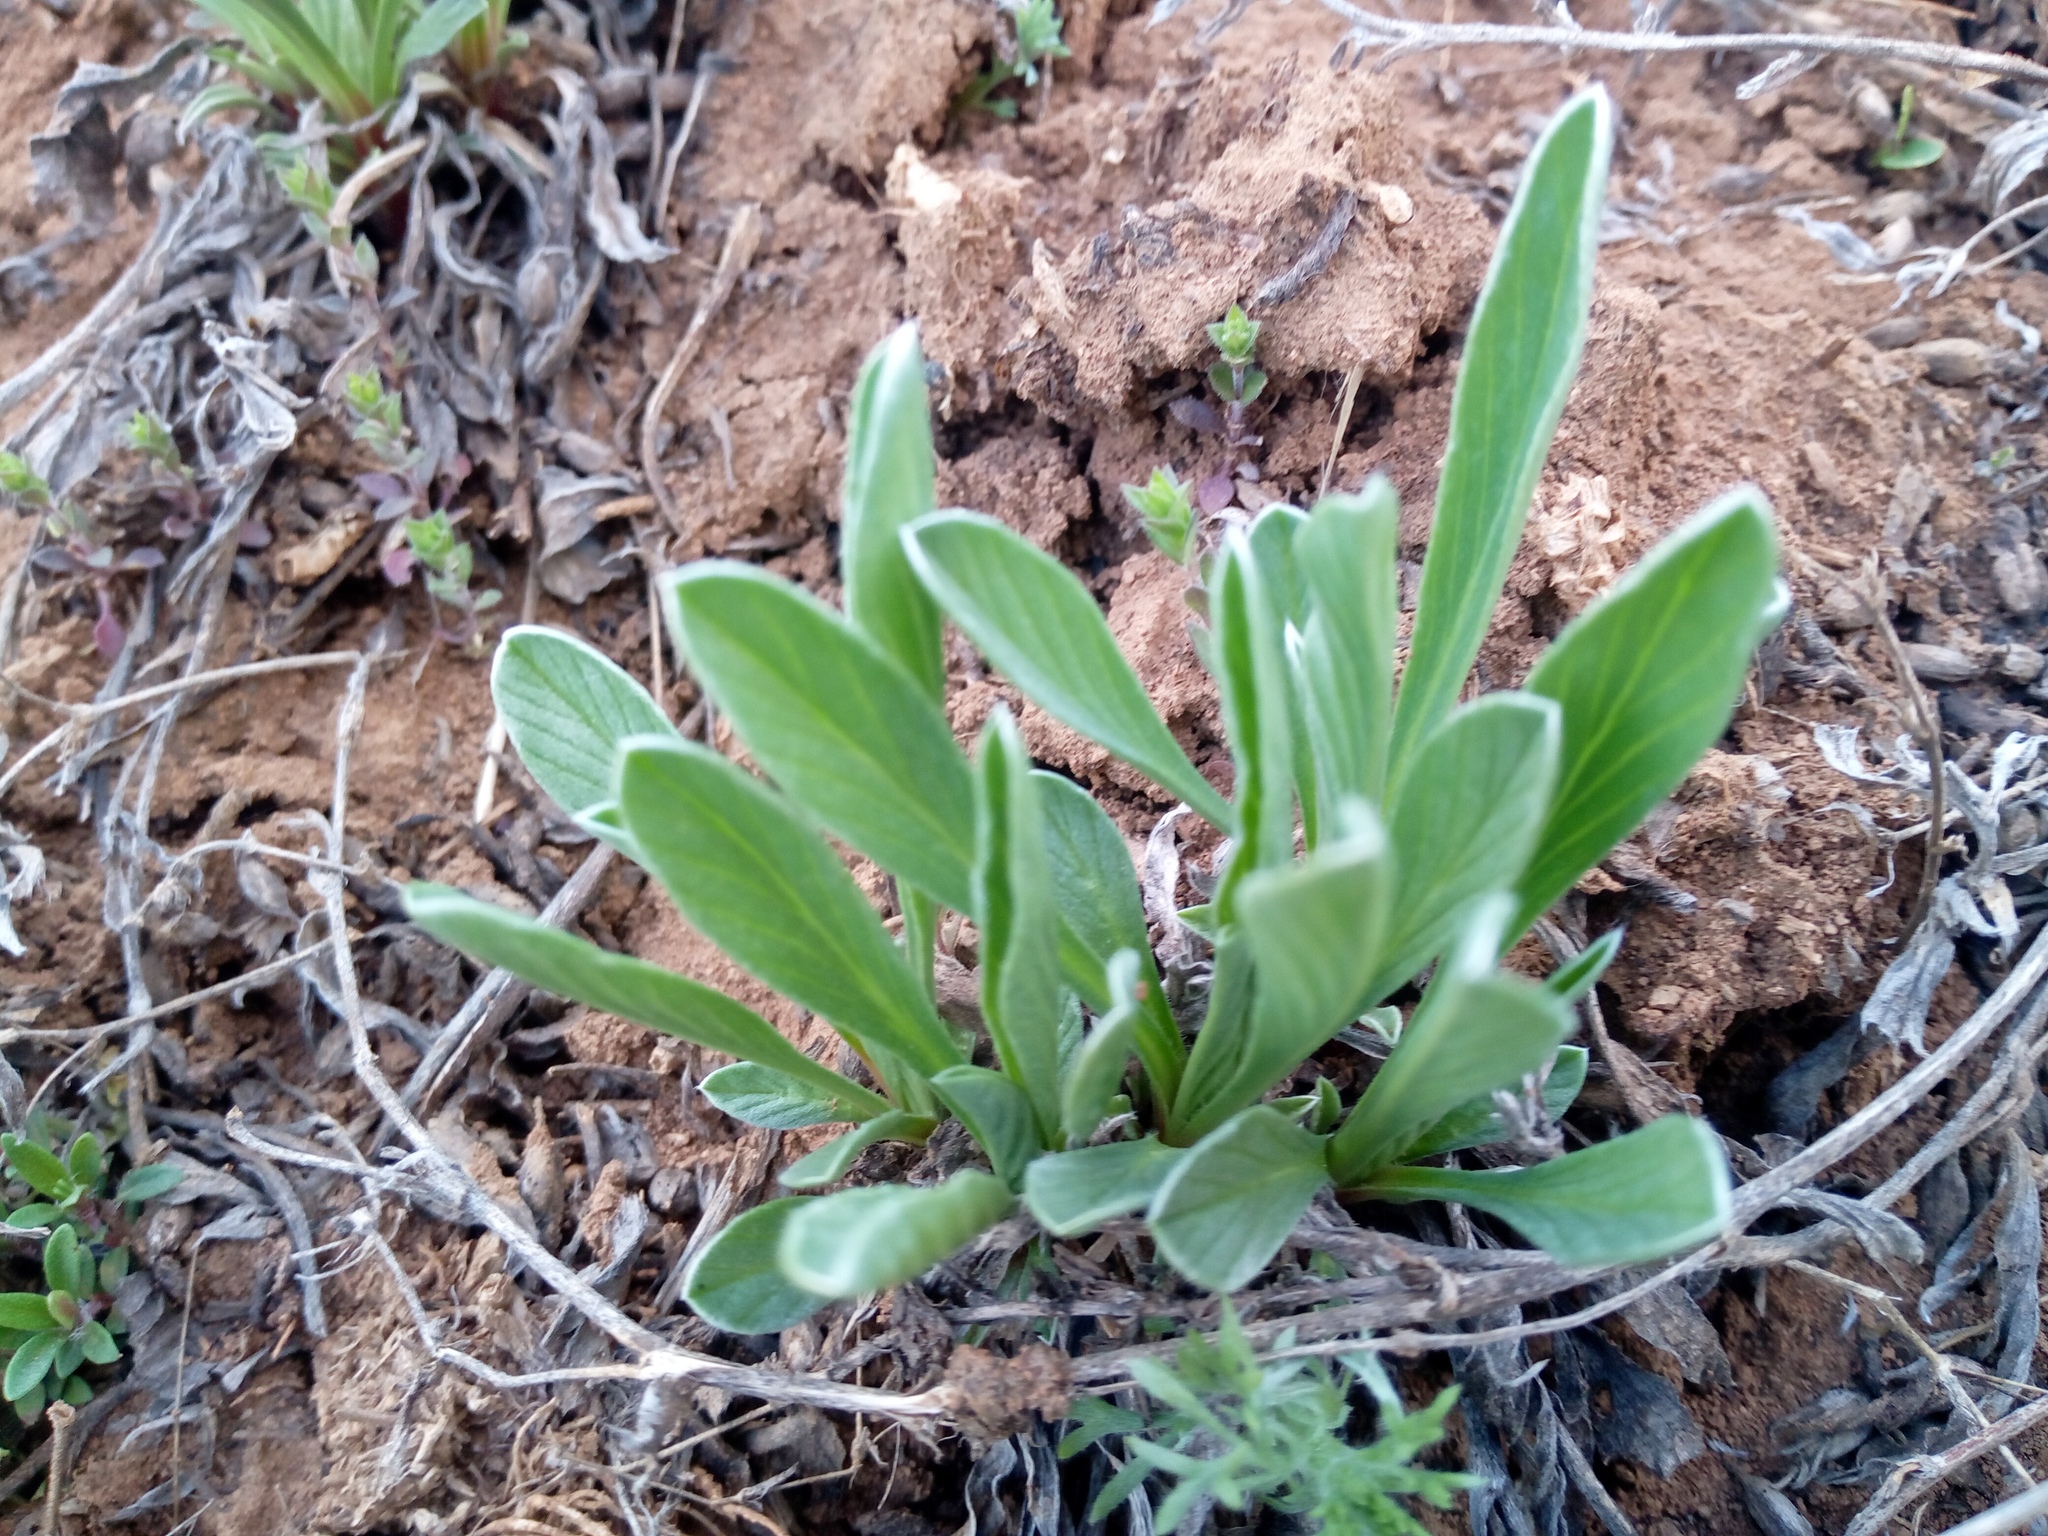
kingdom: Plantae
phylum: Tracheophyta
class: Magnoliopsida
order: Solanales
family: Convolvulaceae
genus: Convolvulus
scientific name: Convolvulus lineatus
